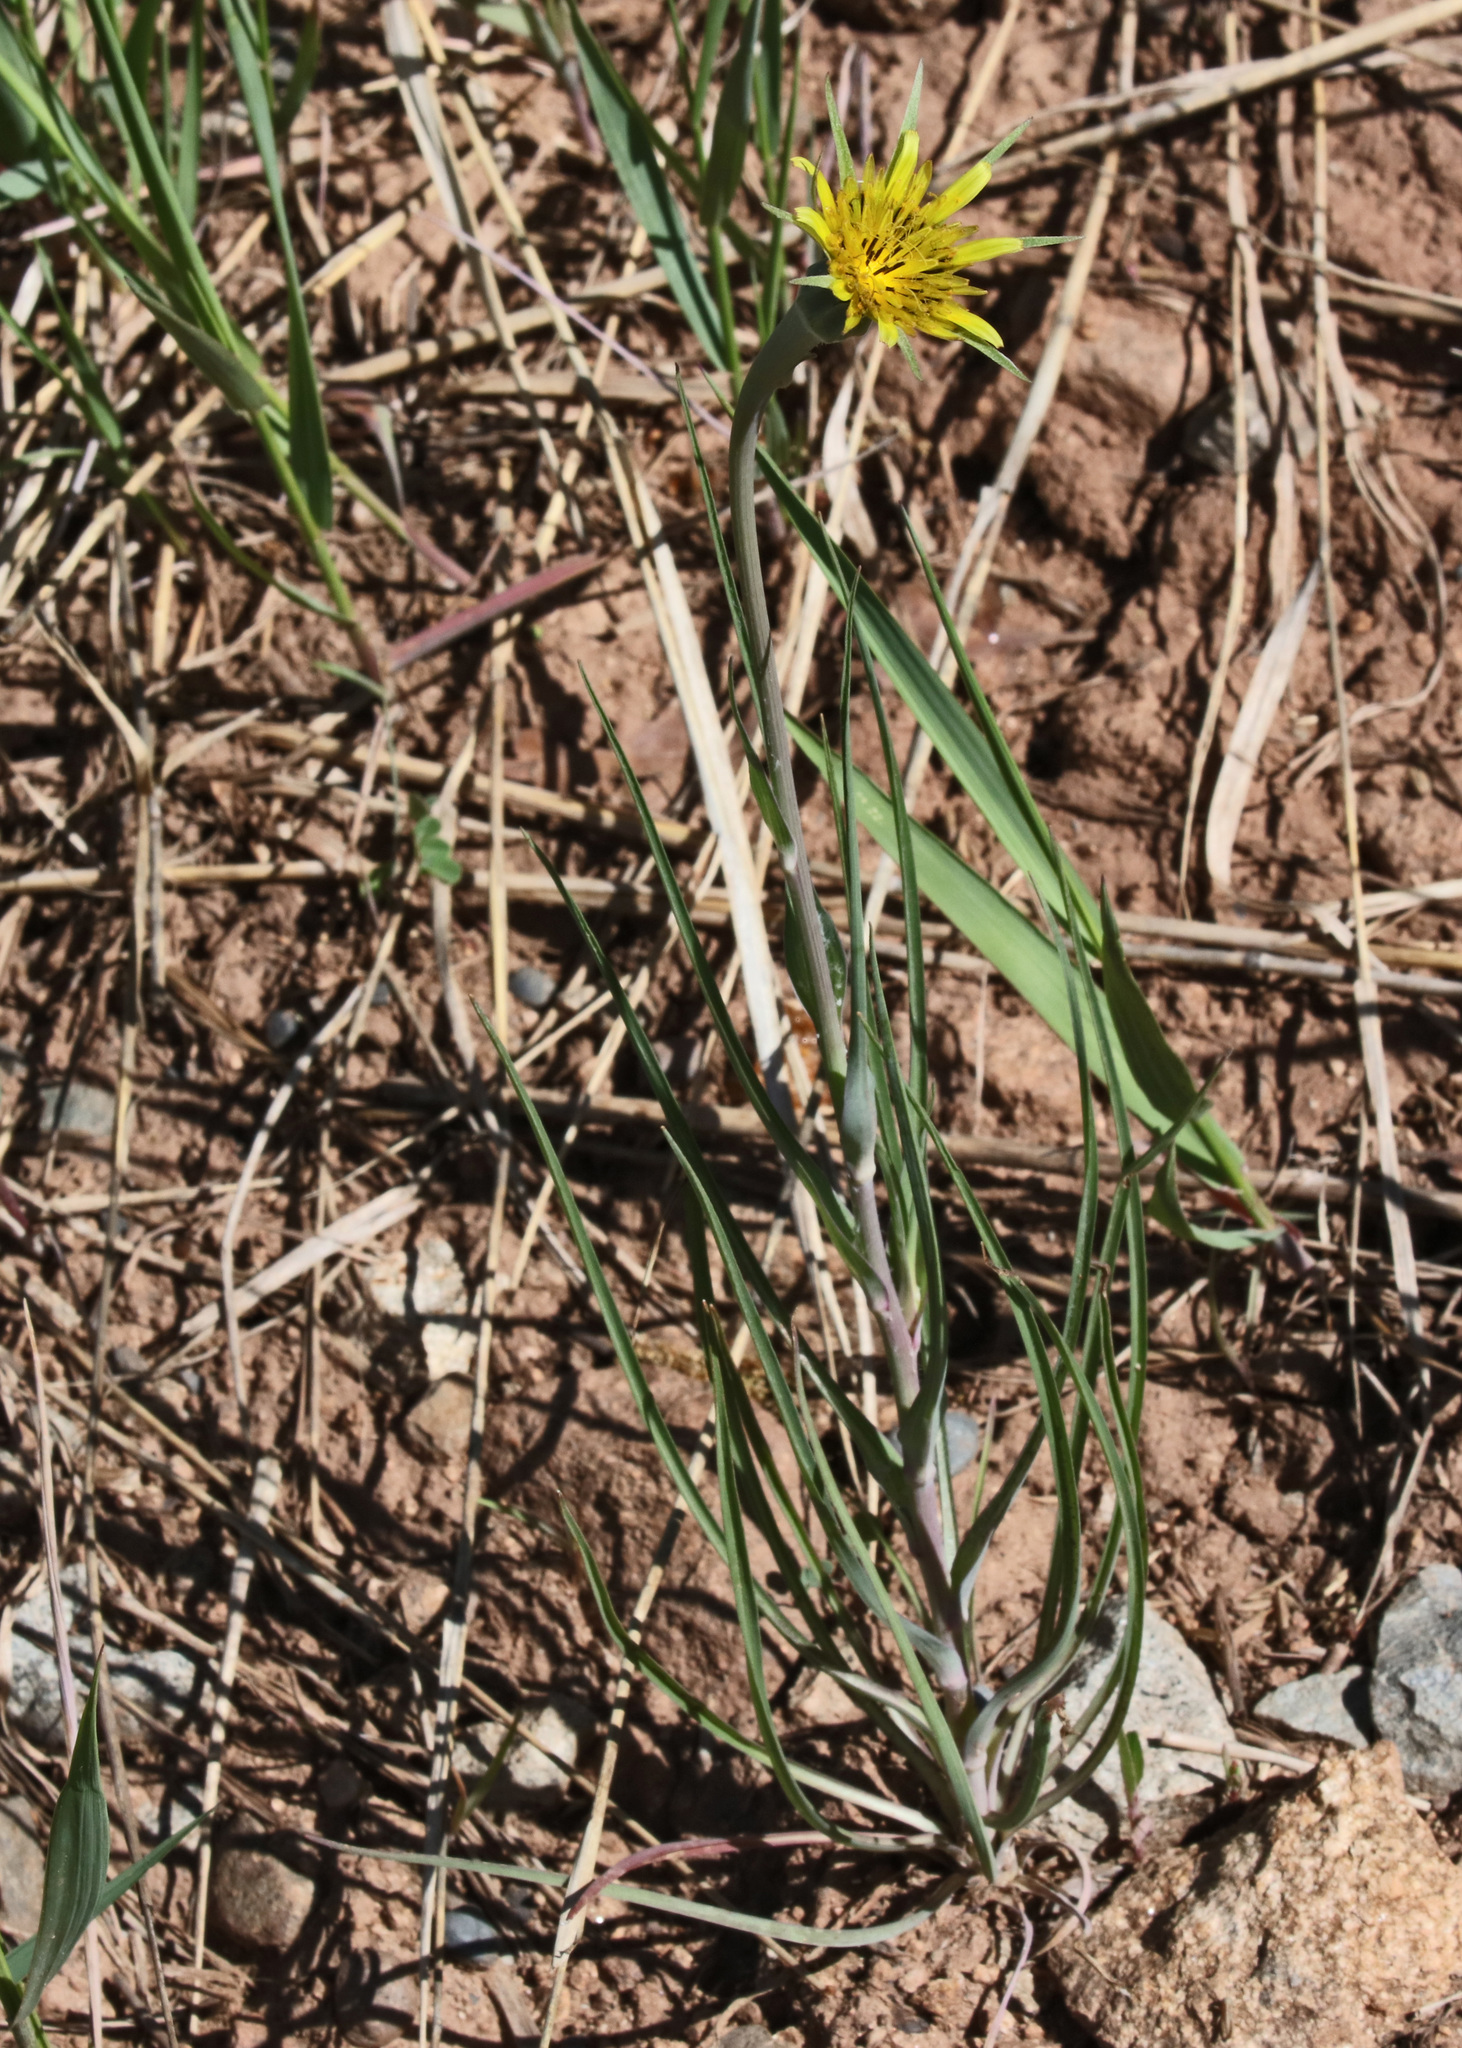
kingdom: Plantae
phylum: Tracheophyta
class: Magnoliopsida
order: Asterales
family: Asteraceae
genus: Tragopogon
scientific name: Tragopogon dubius
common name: Yellow salsify
